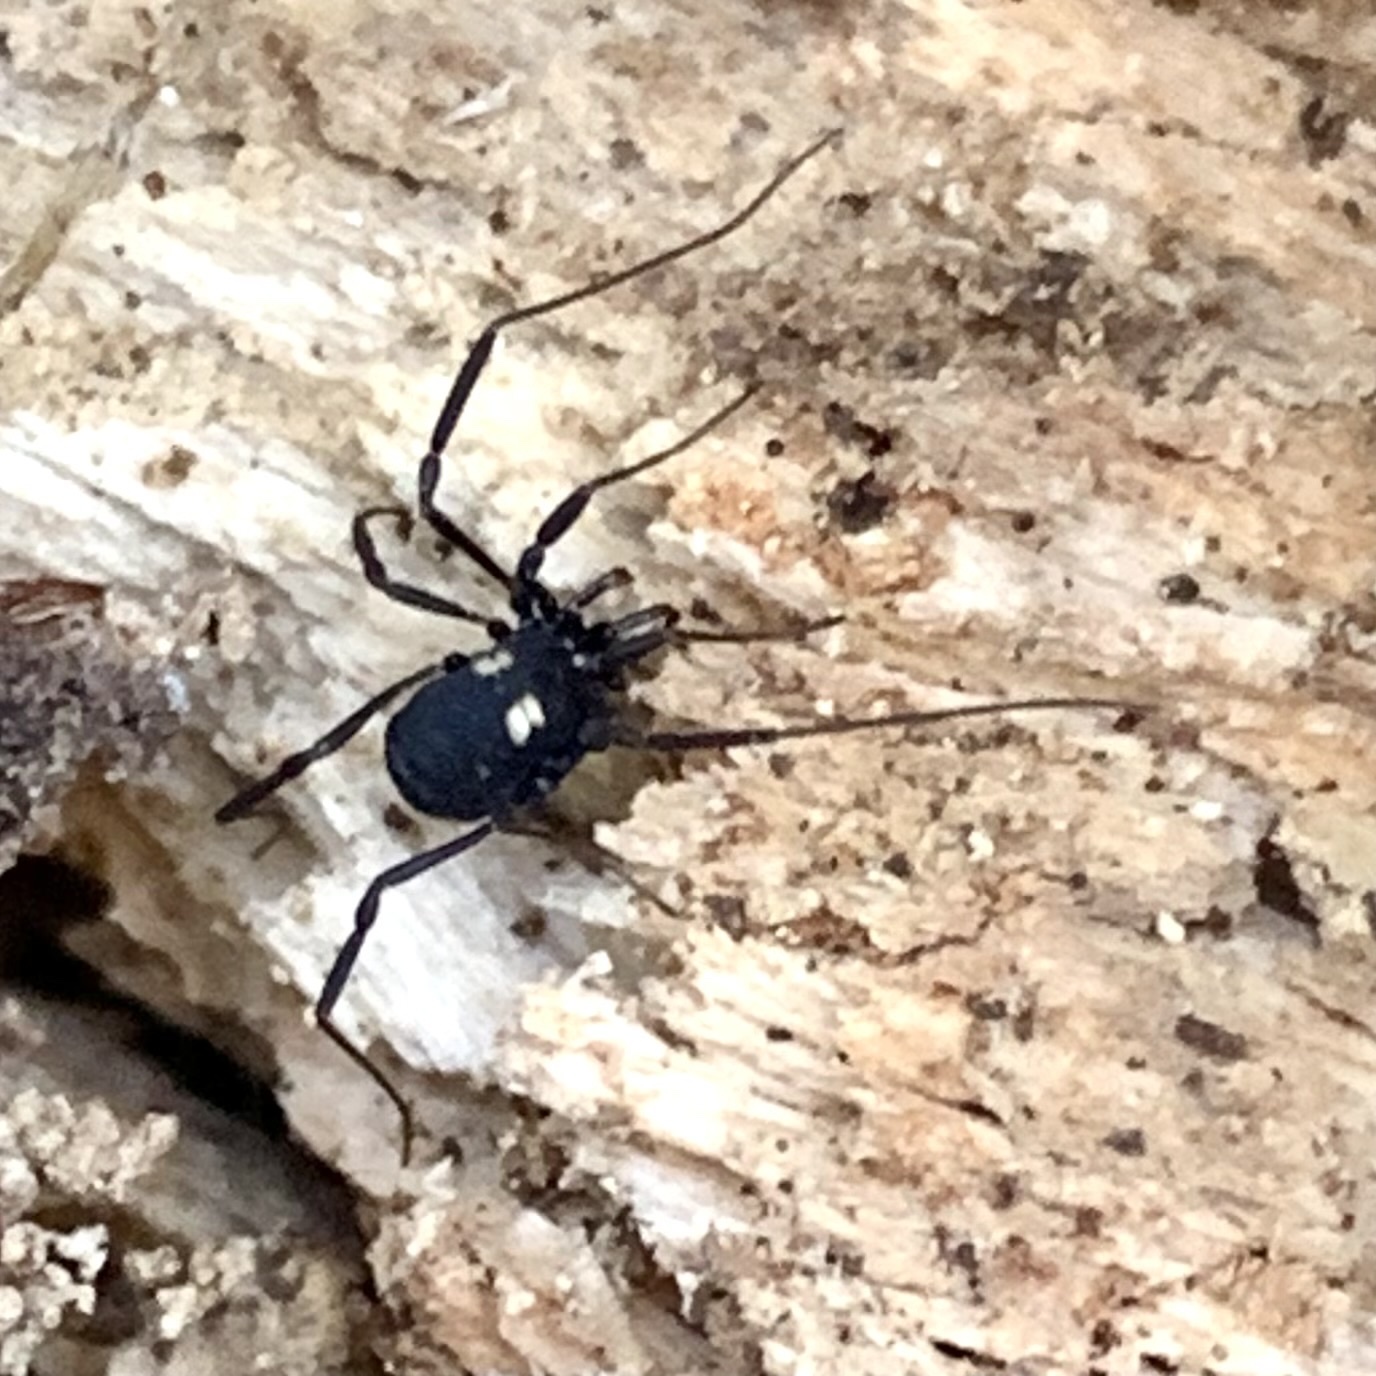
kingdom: Animalia
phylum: Arthropoda
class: Arachnida
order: Opiliones
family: Nemastomatidae
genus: Nemastoma
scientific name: Nemastoma bimaculatum
